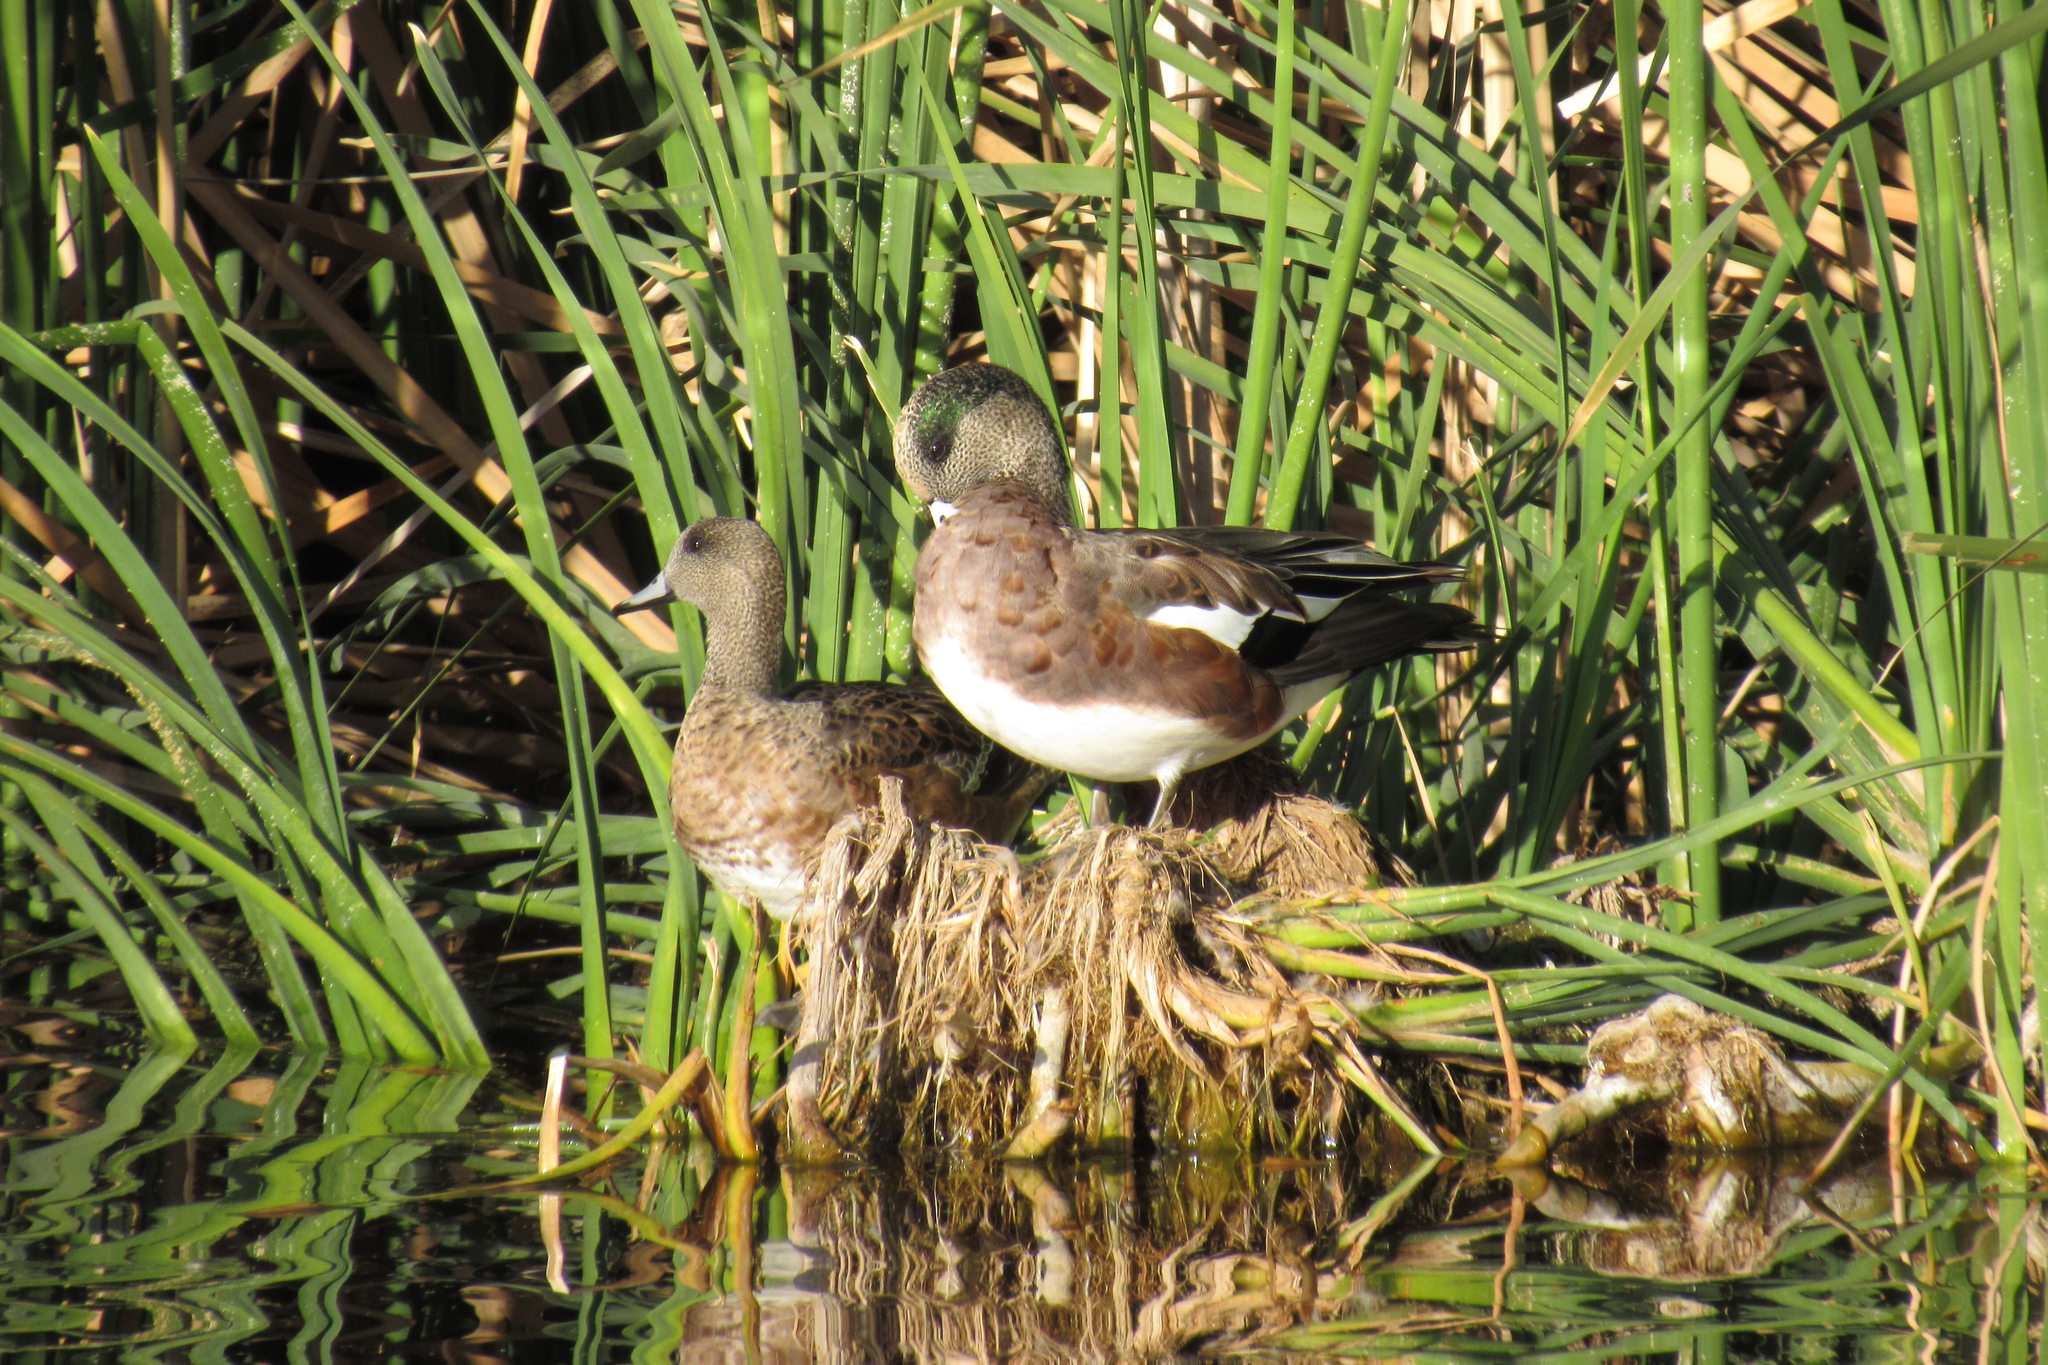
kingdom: Animalia
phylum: Chordata
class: Aves
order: Anseriformes
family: Anatidae
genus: Mareca
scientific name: Mareca americana
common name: American wigeon
